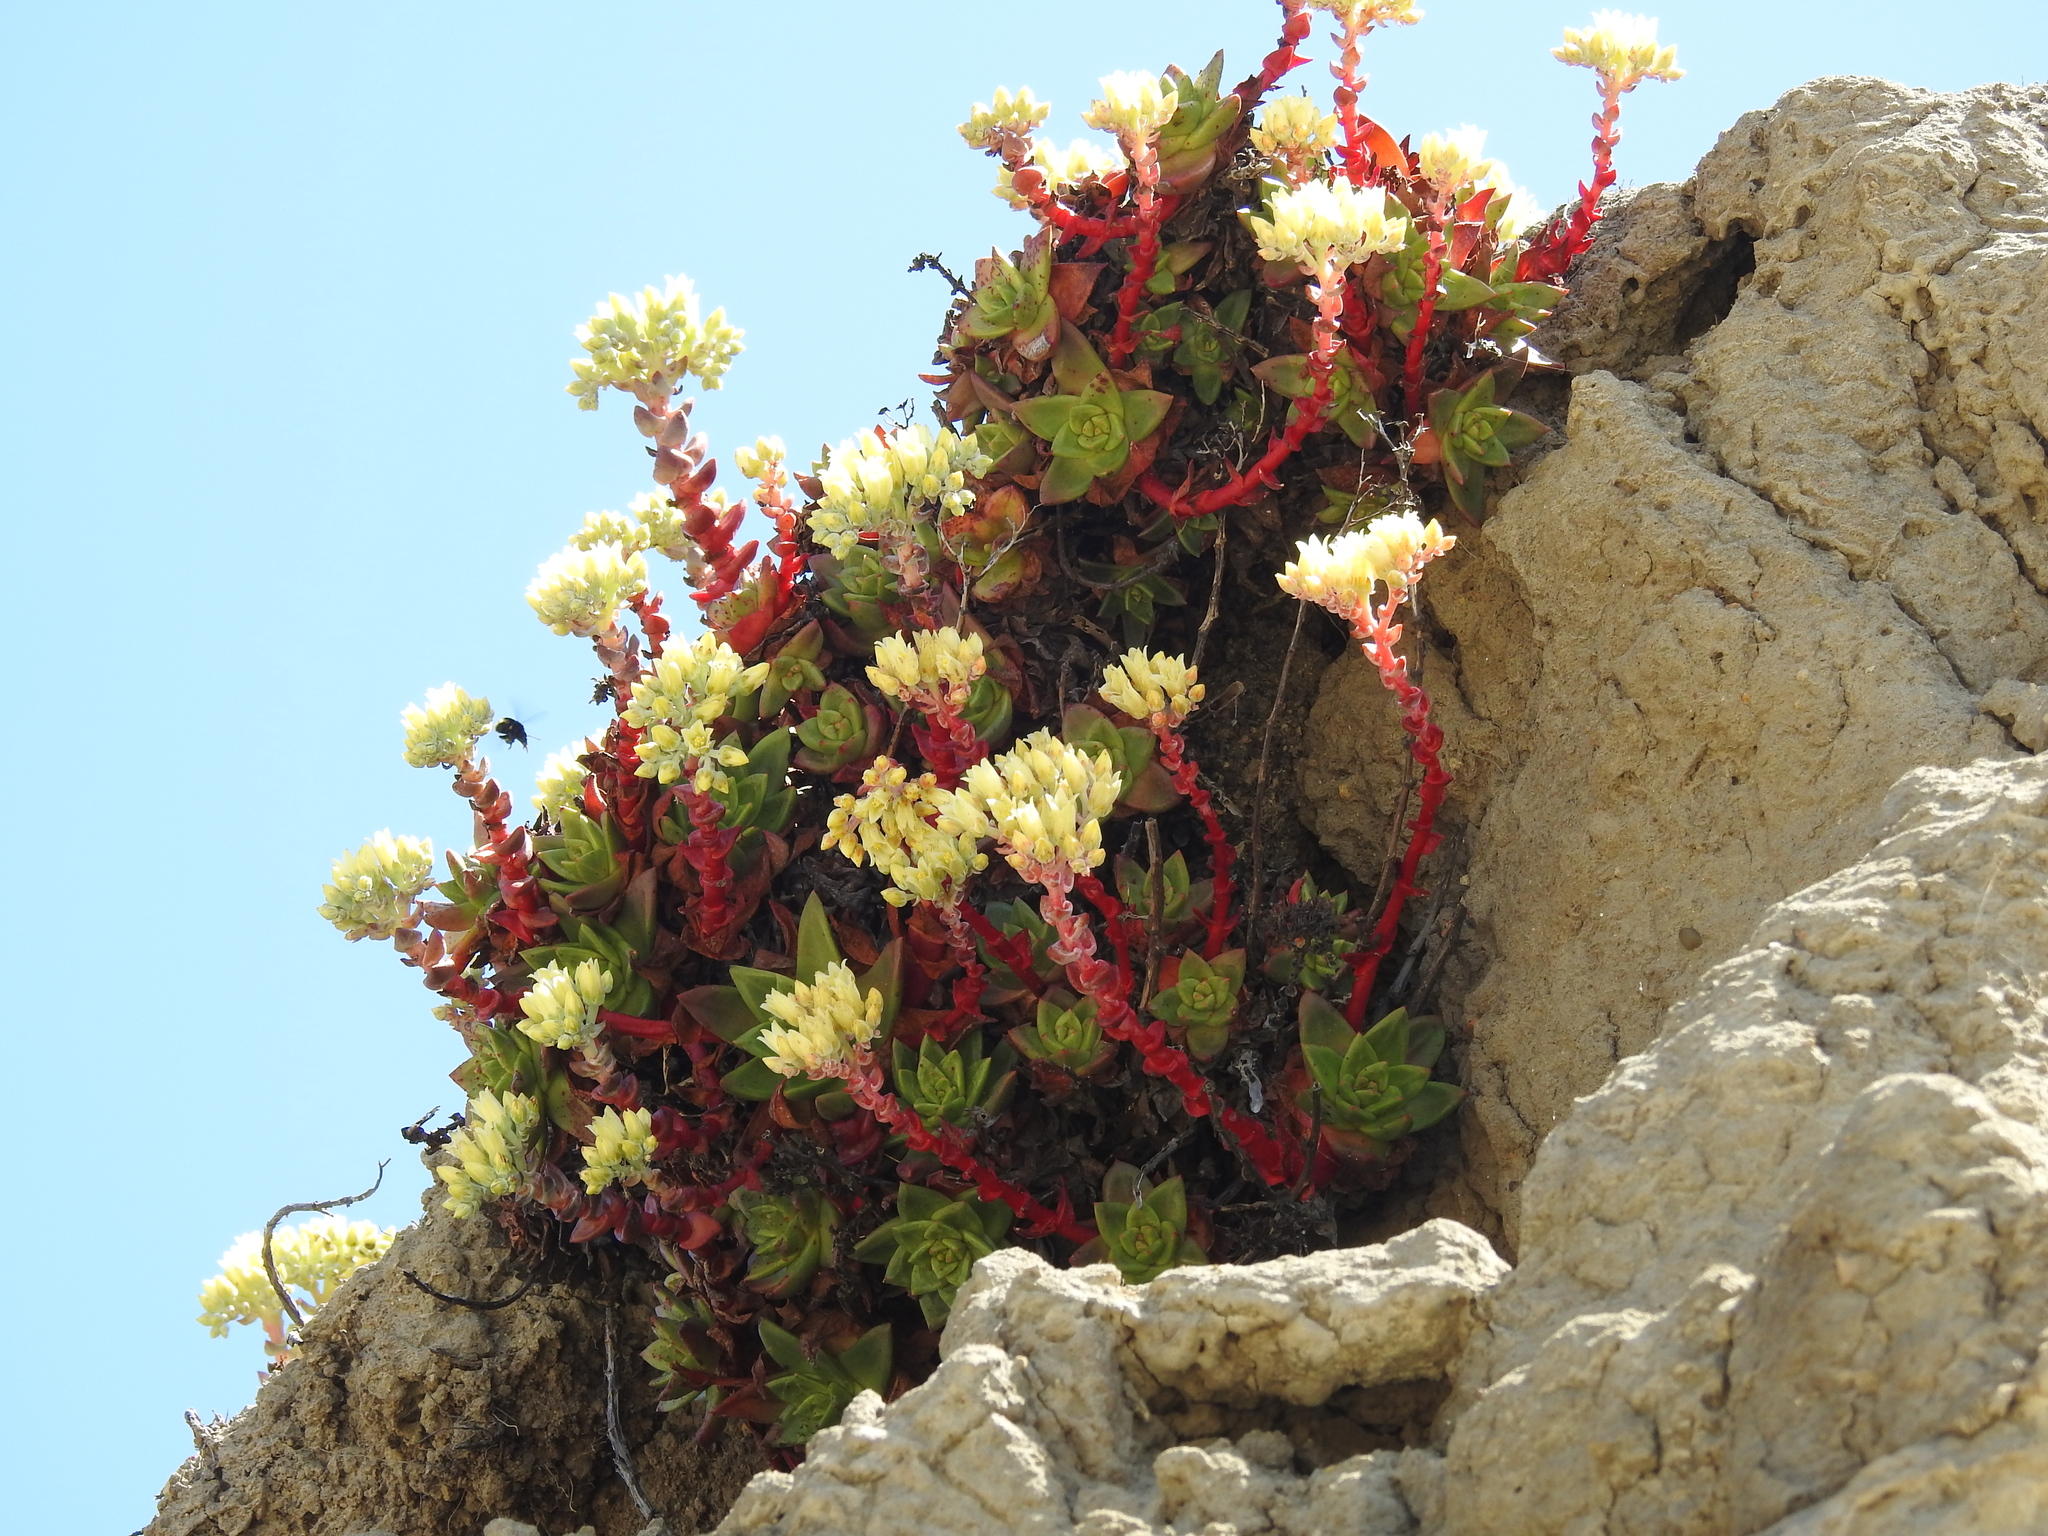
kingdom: Plantae
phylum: Tracheophyta
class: Magnoliopsida
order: Saxifragales
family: Crassulaceae
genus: Dudleya
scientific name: Dudleya farinosa
